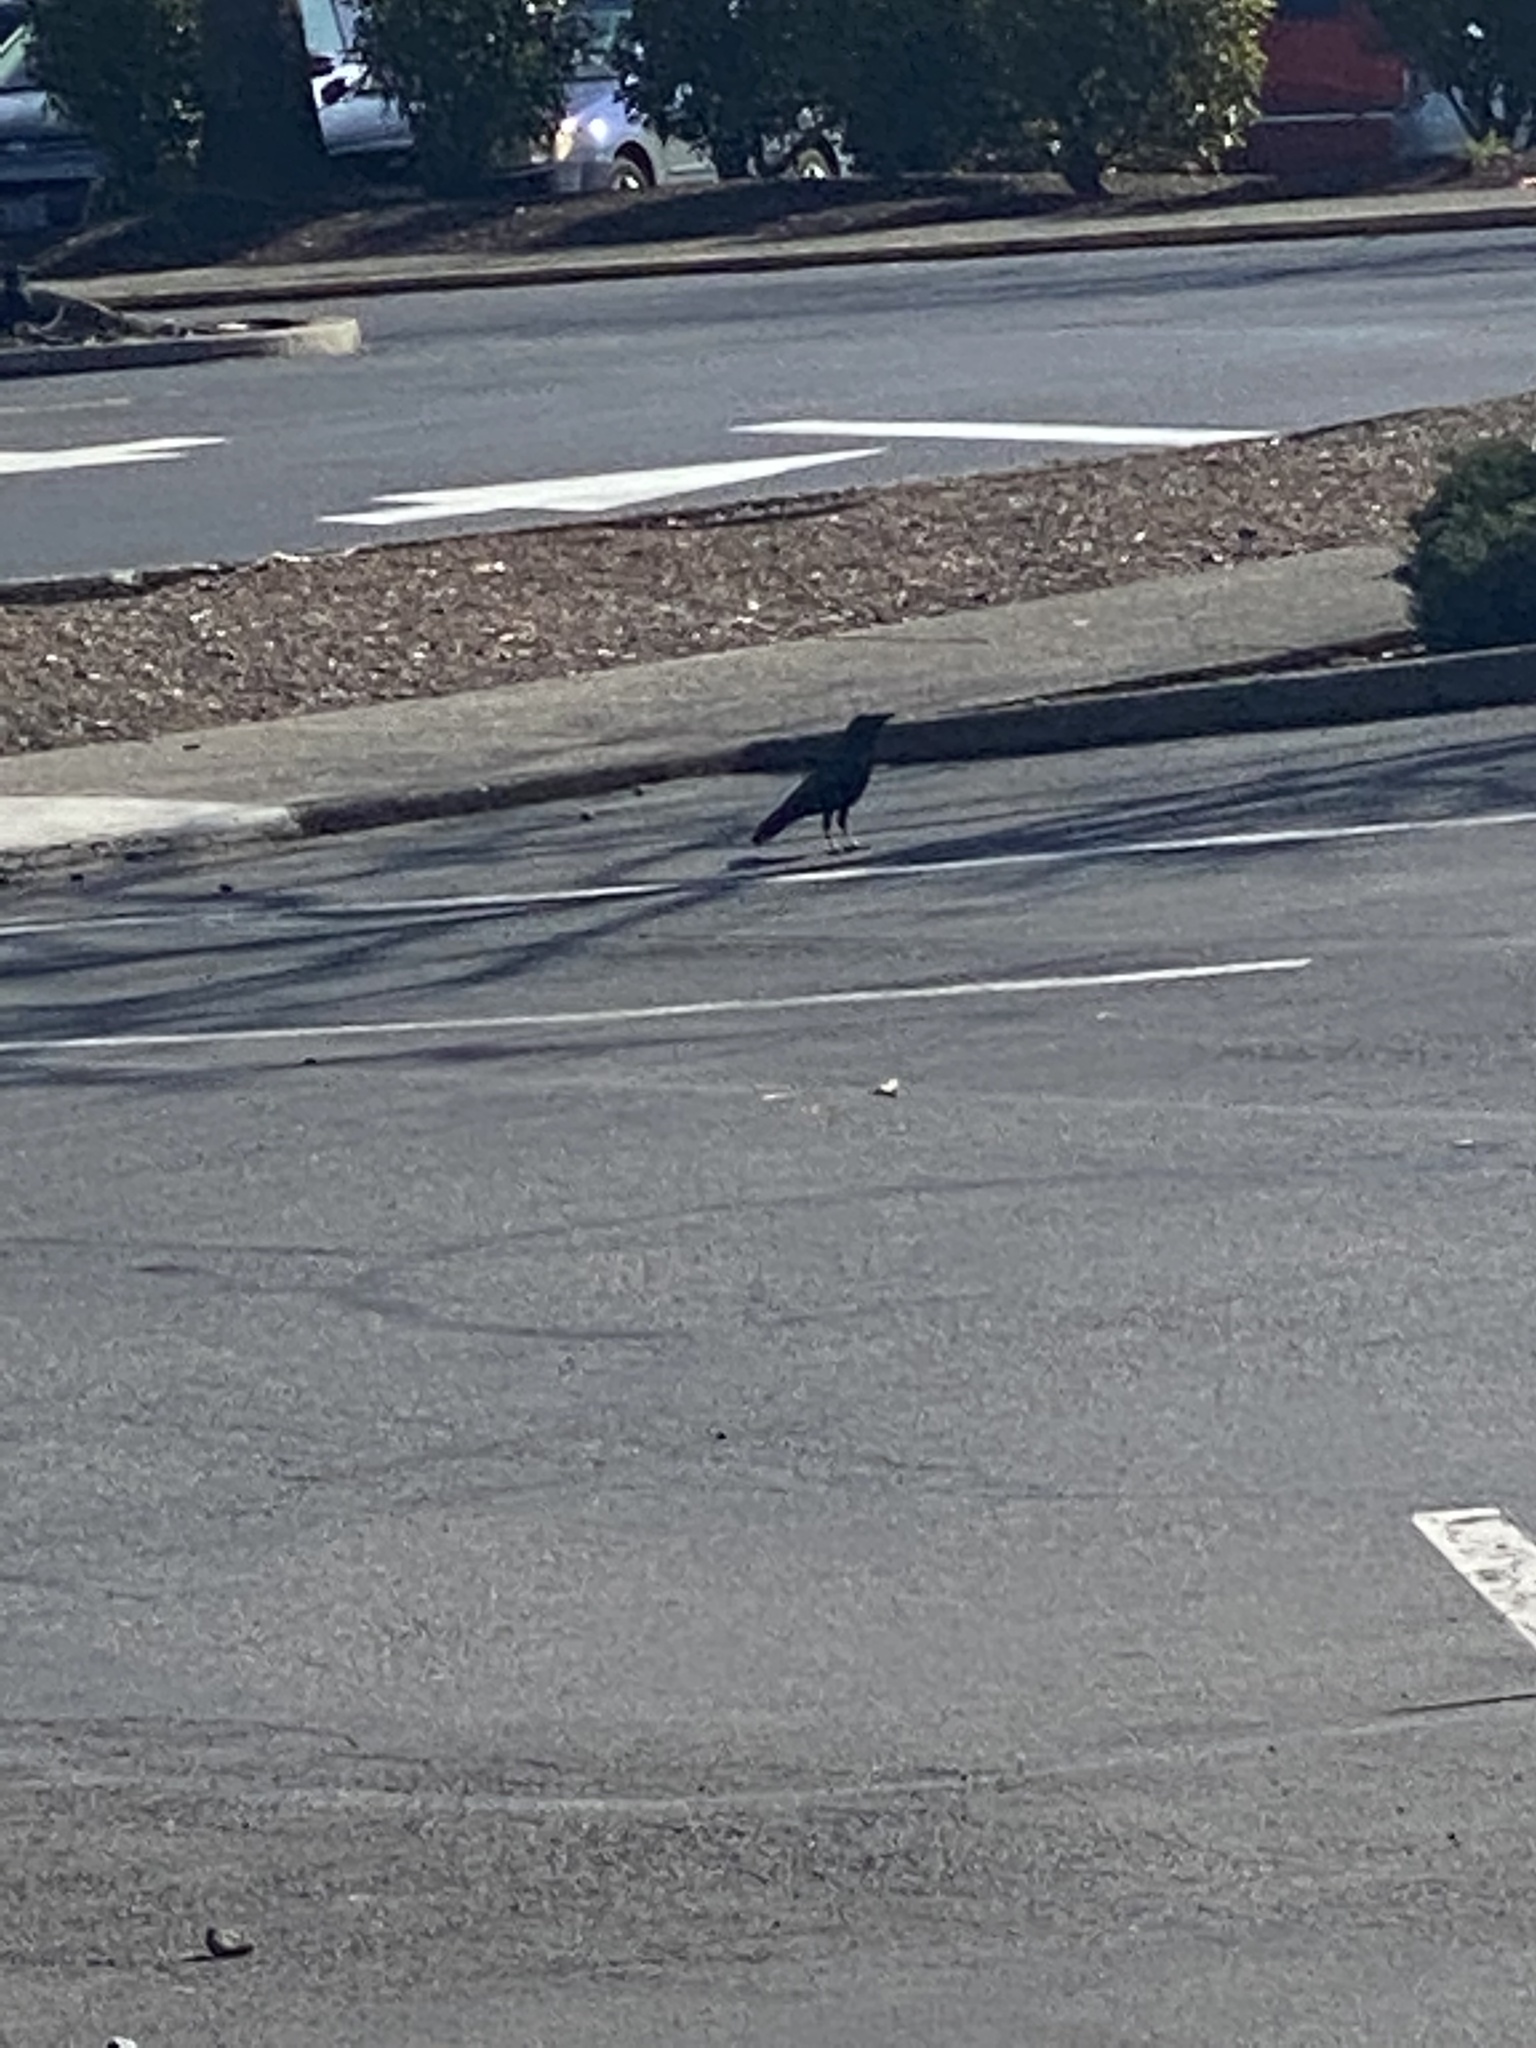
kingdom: Animalia
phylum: Chordata
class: Aves
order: Passeriformes
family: Corvidae
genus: Corvus
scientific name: Corvus brachyrhynchos
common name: American crow
